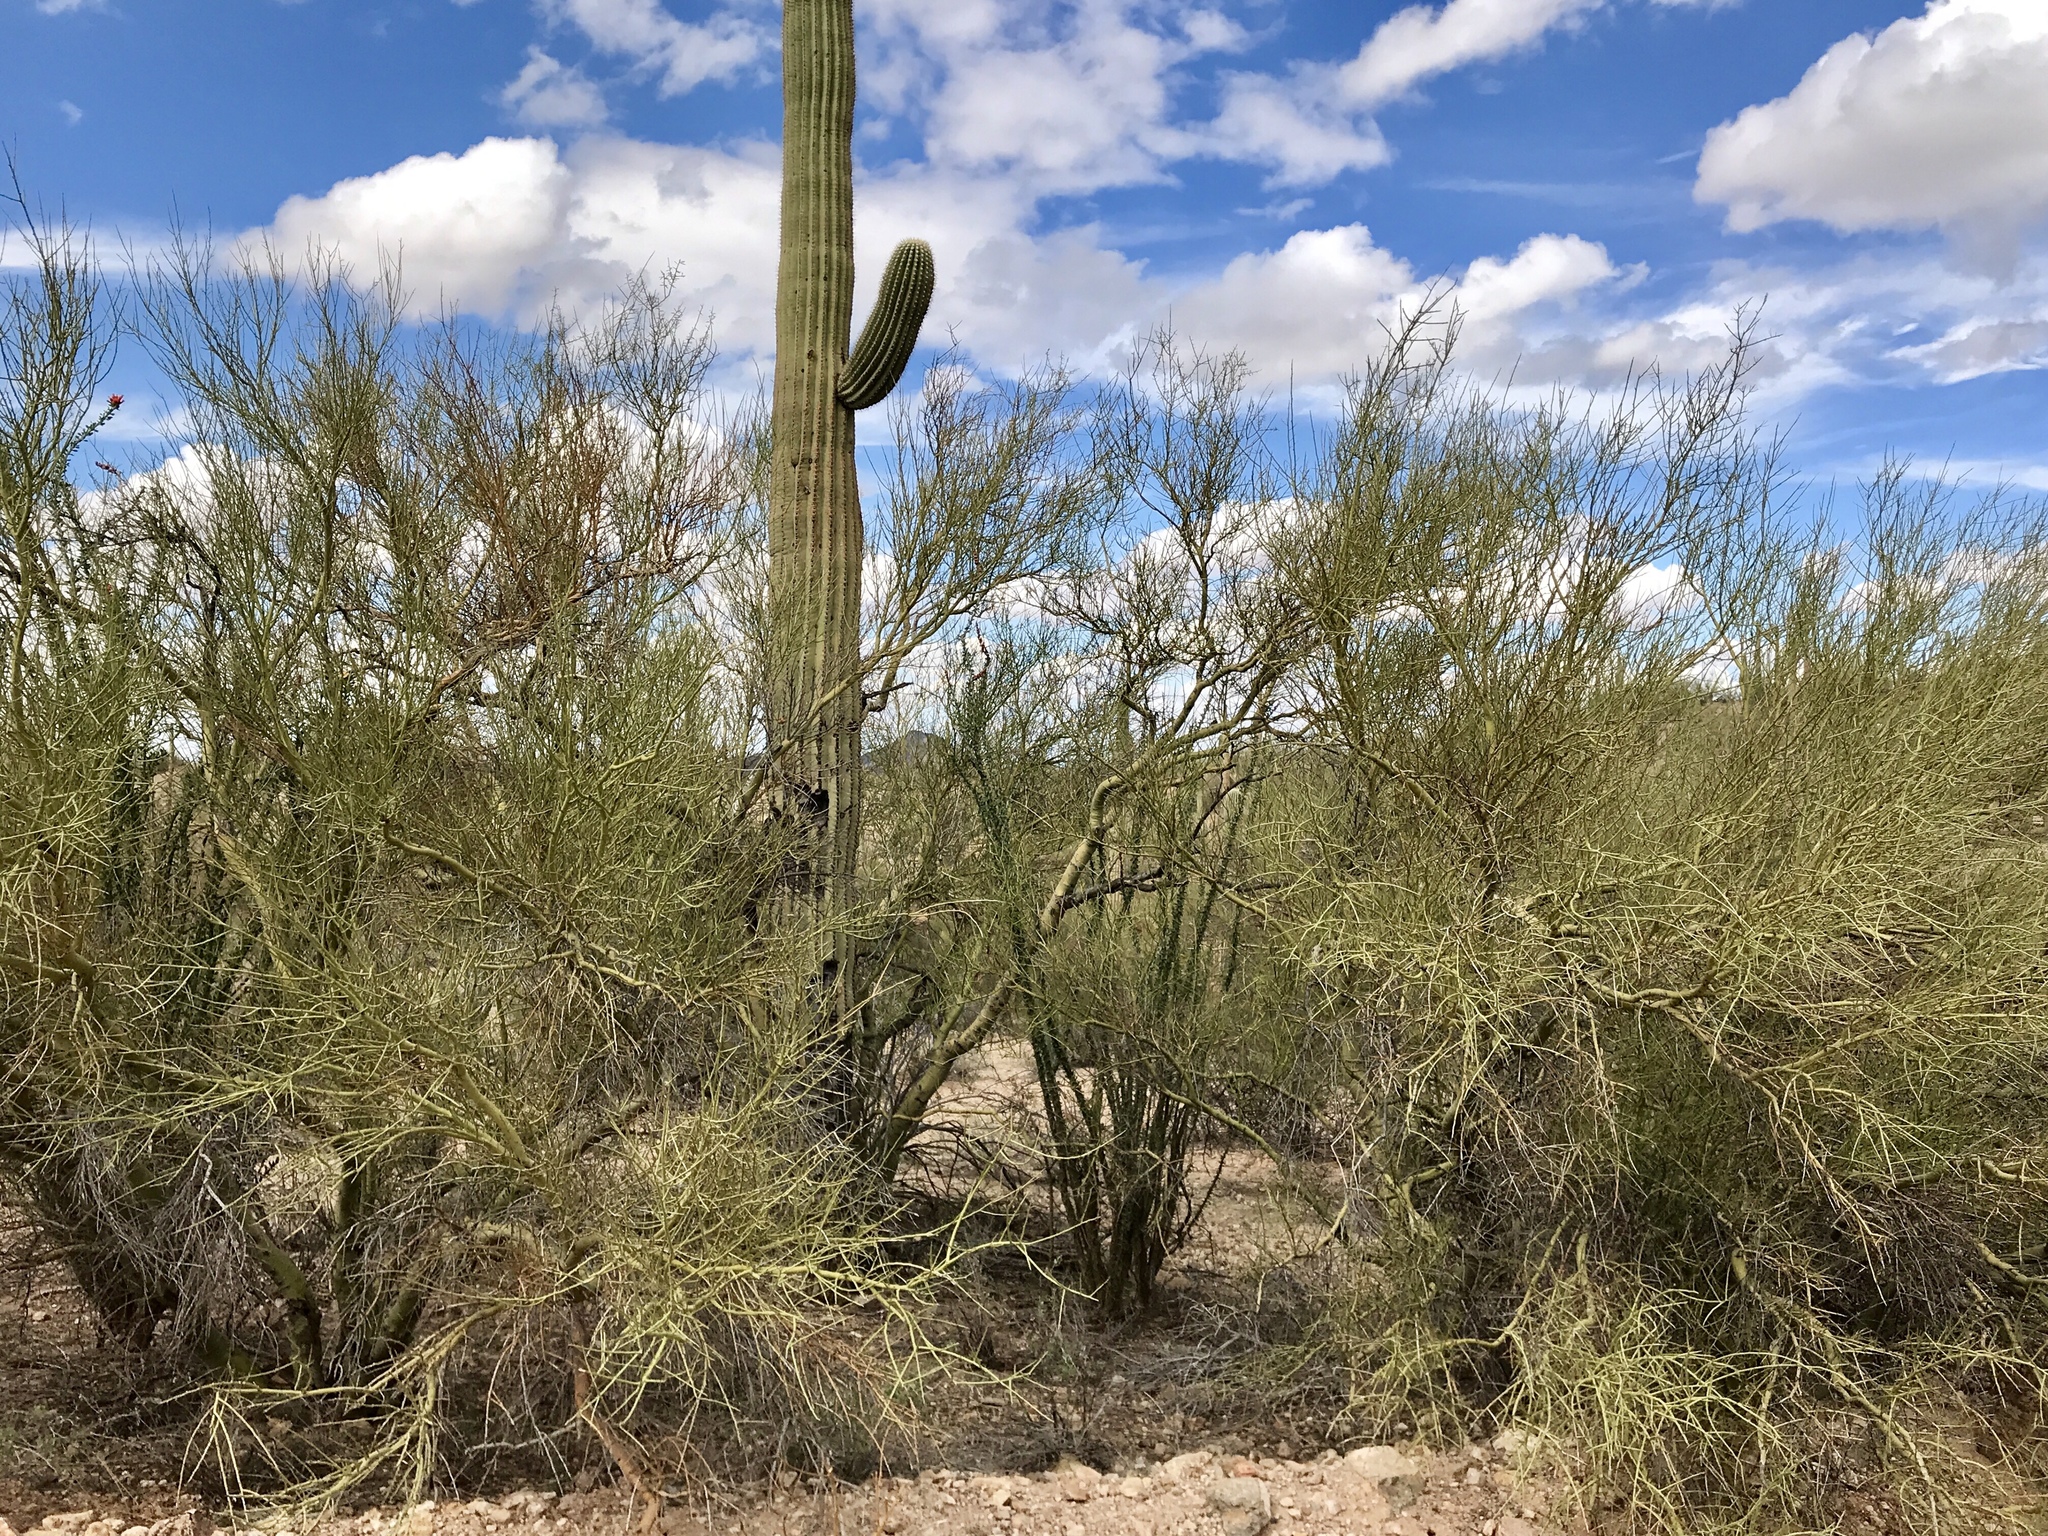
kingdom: Plantae
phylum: Tracheophyta
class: Magnoliopsida
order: Fabales
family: Fabaceae
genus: Parkinsonia
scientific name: Parkinsonia microphylla
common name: Yellow paloverde
